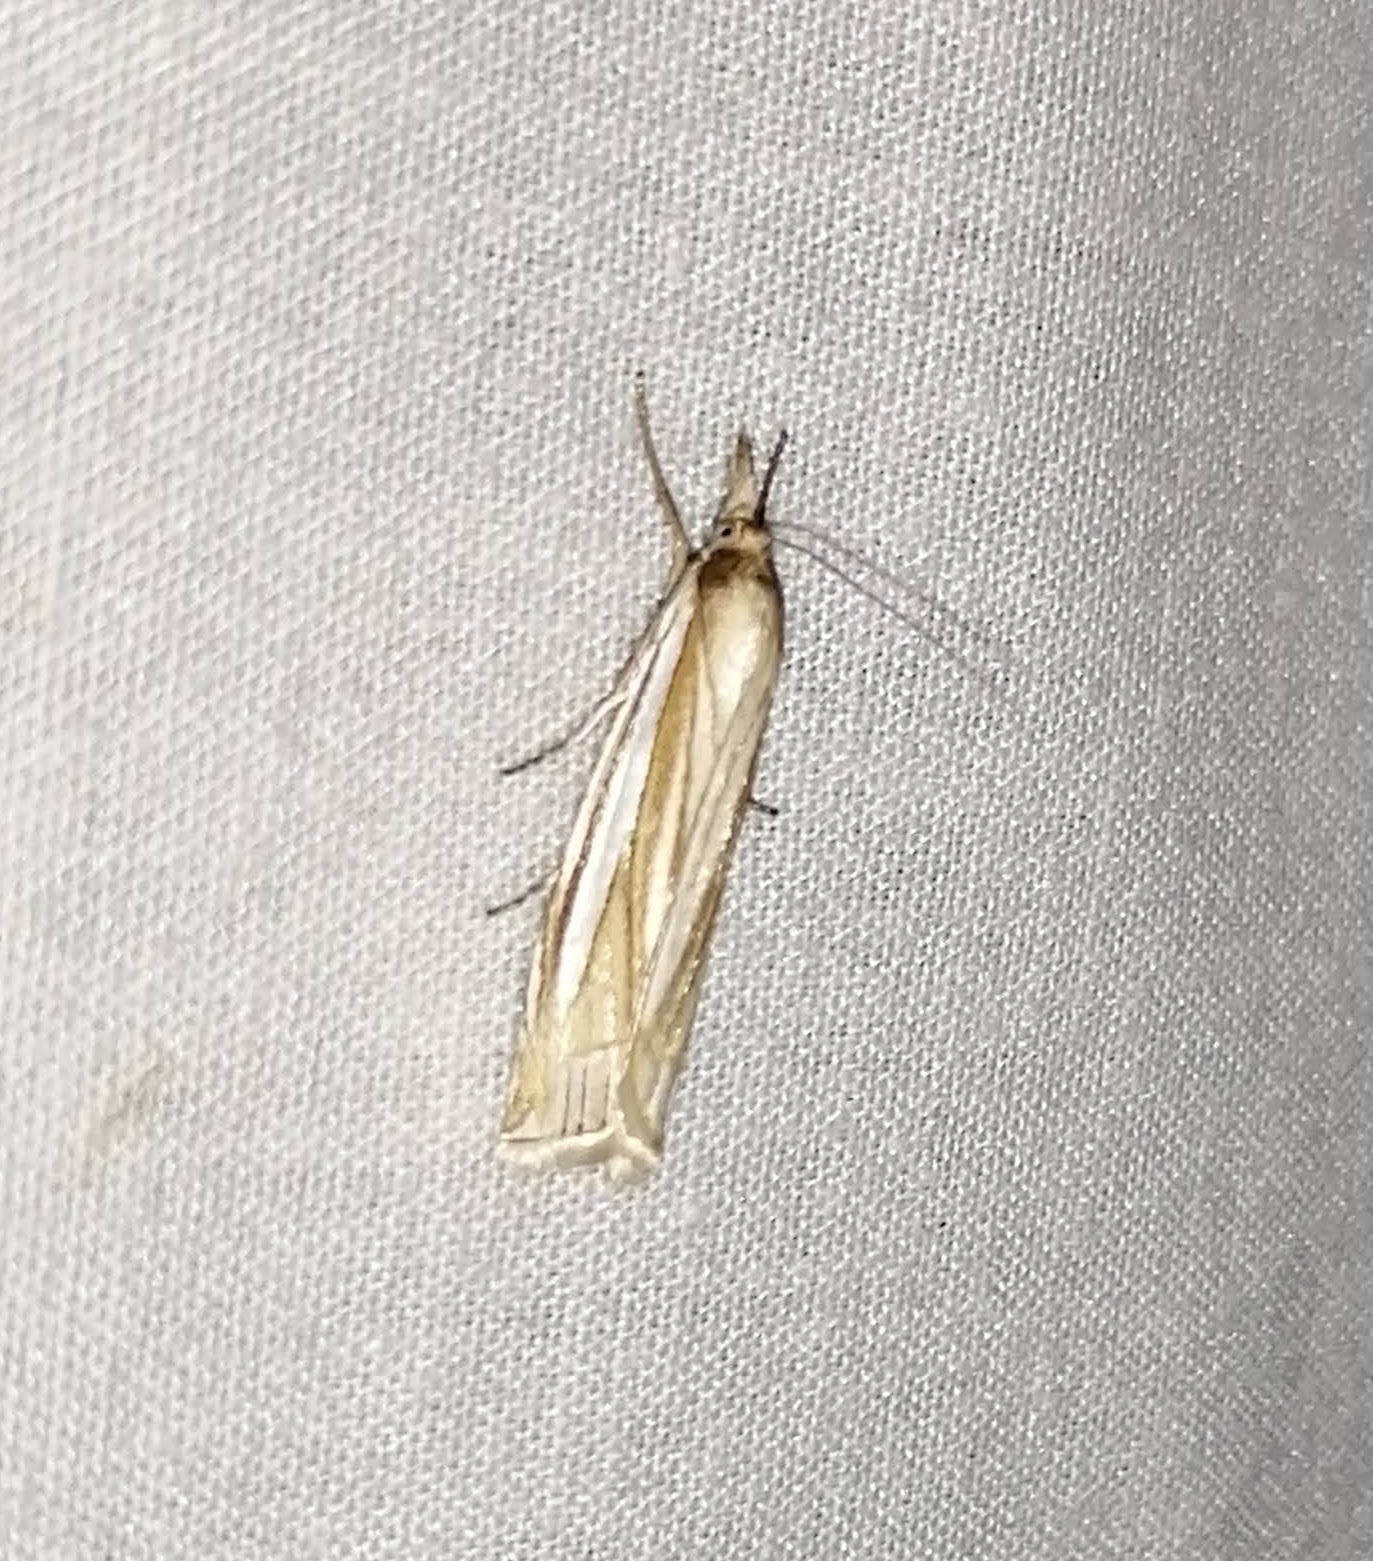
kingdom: Animalia
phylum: Arthropoda
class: Insecta
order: Lepidoptera
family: Crambidae
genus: Crambus
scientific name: Crambus laqueatellus
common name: Eastern grass-veneer
